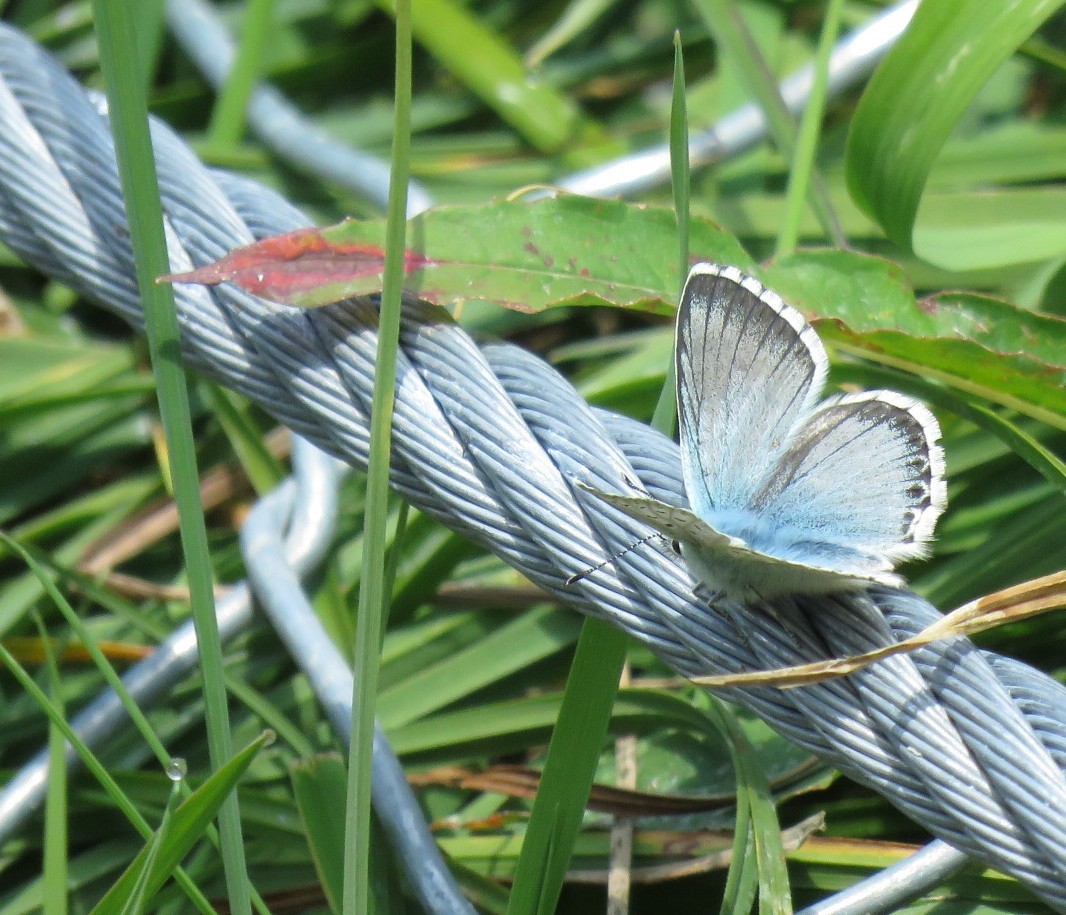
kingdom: Animalia
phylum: Arthropoda
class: Insecta
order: Lepidoptera
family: Lycaenidae
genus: Lysandra
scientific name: Lysandra coridon
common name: Chalkhill blue
